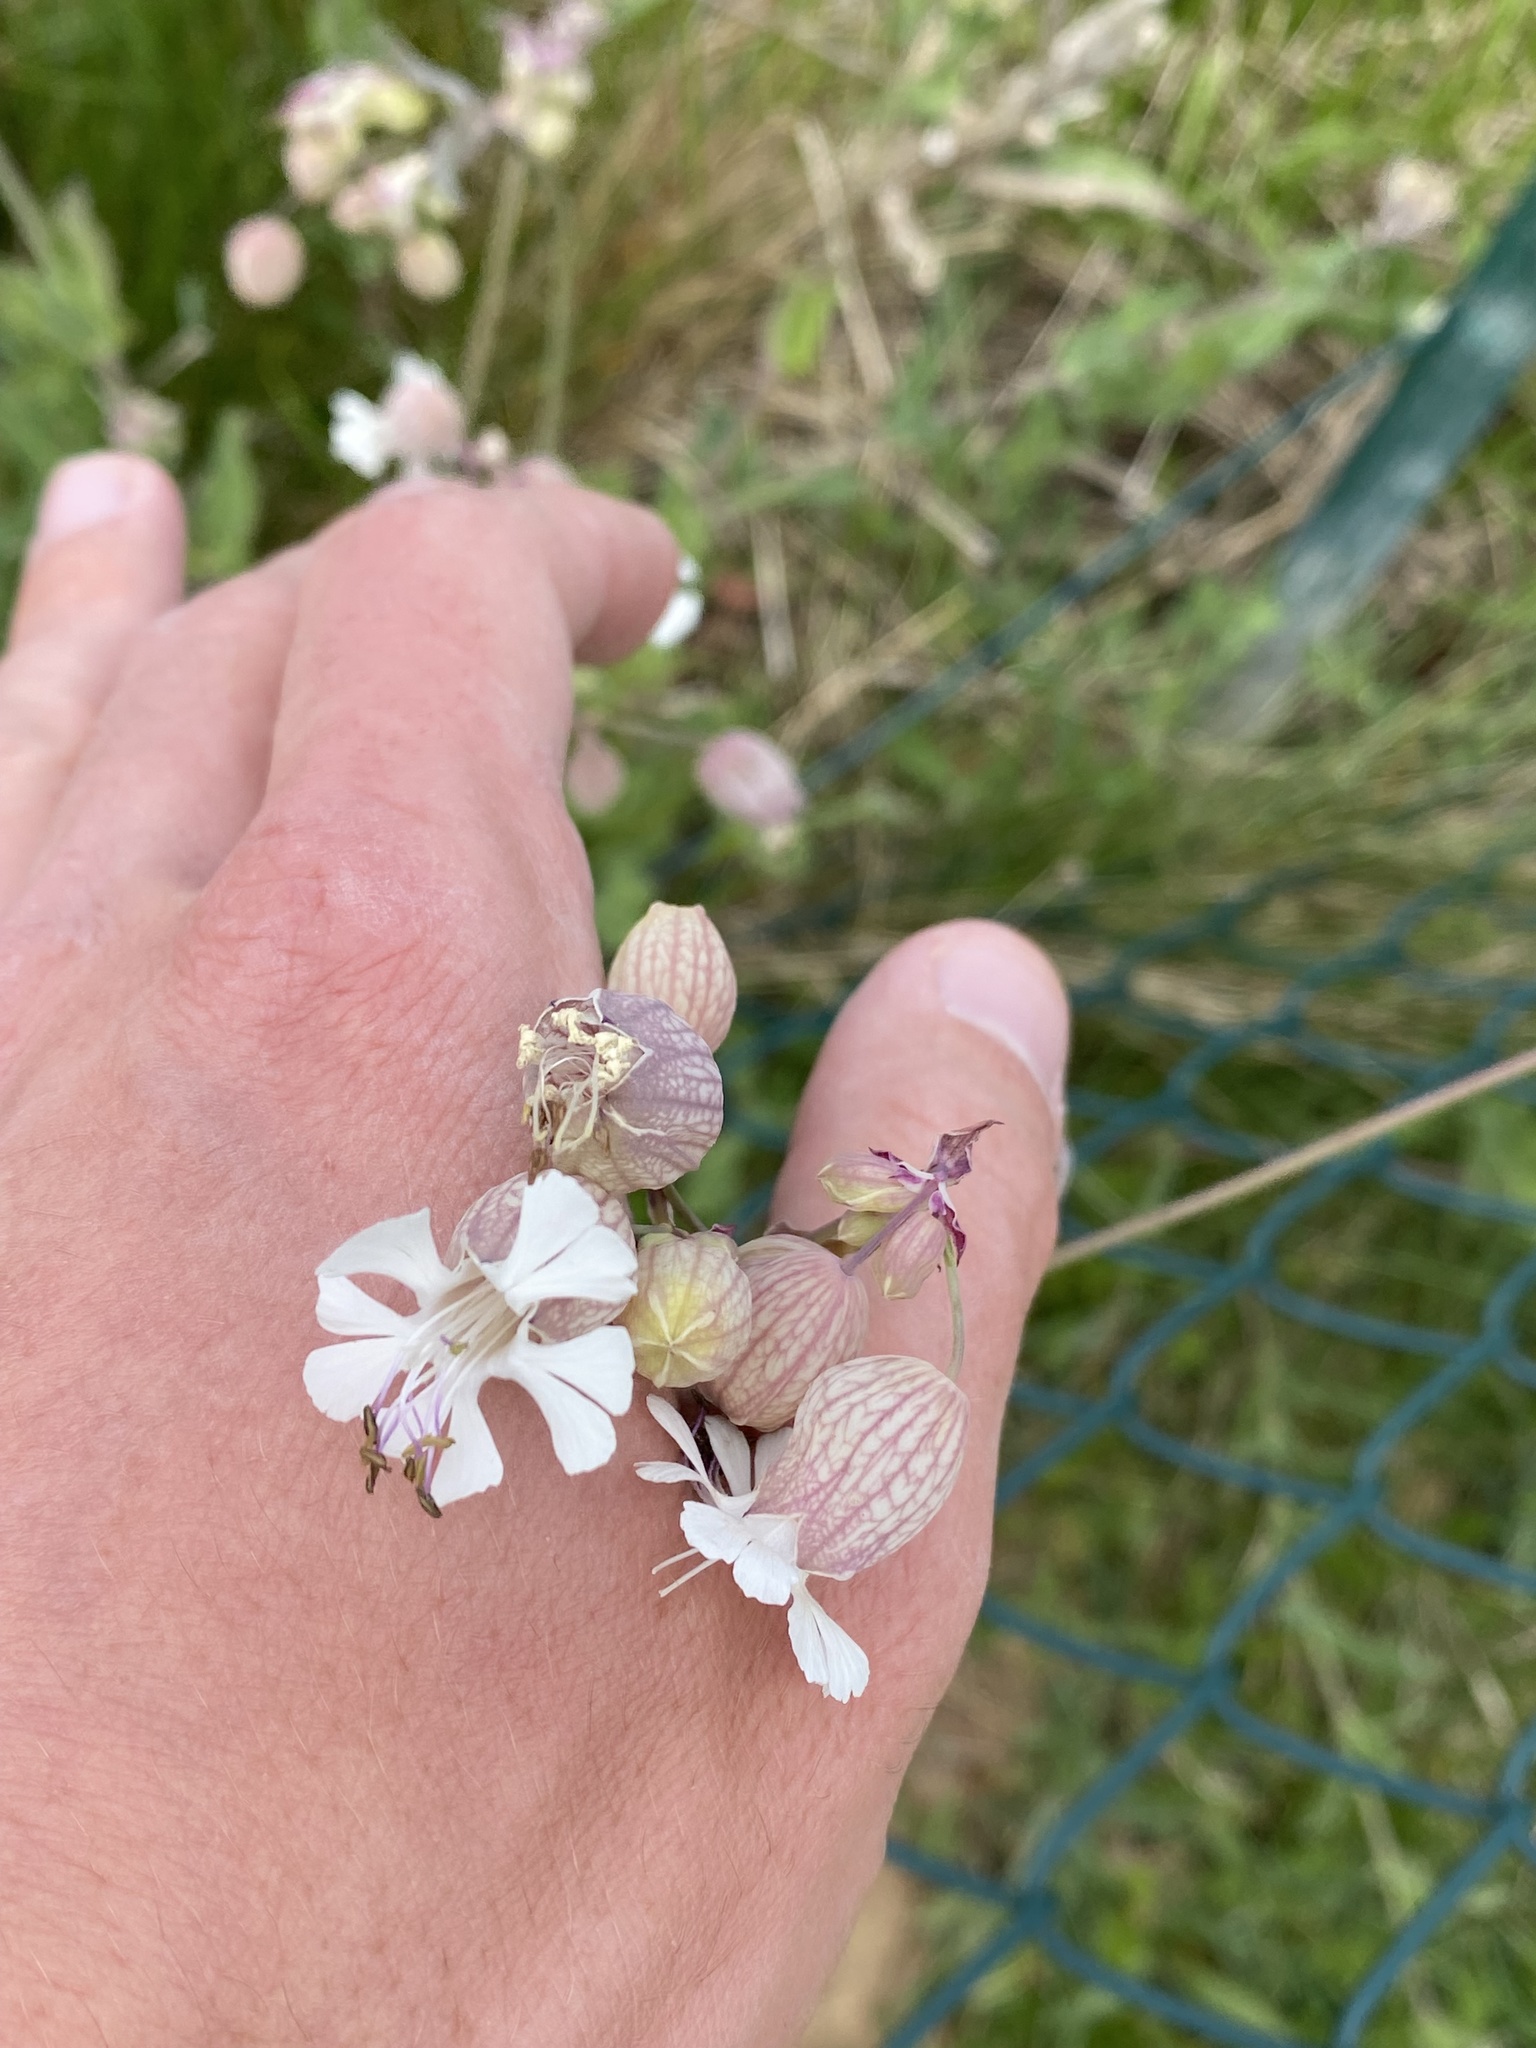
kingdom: Plantae
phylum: Tracheophyta
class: Magnoliopsida
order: Caryophyllales
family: Caryophyllaceae
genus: Silene
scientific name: Silene vulgaris
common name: Bladder campion
